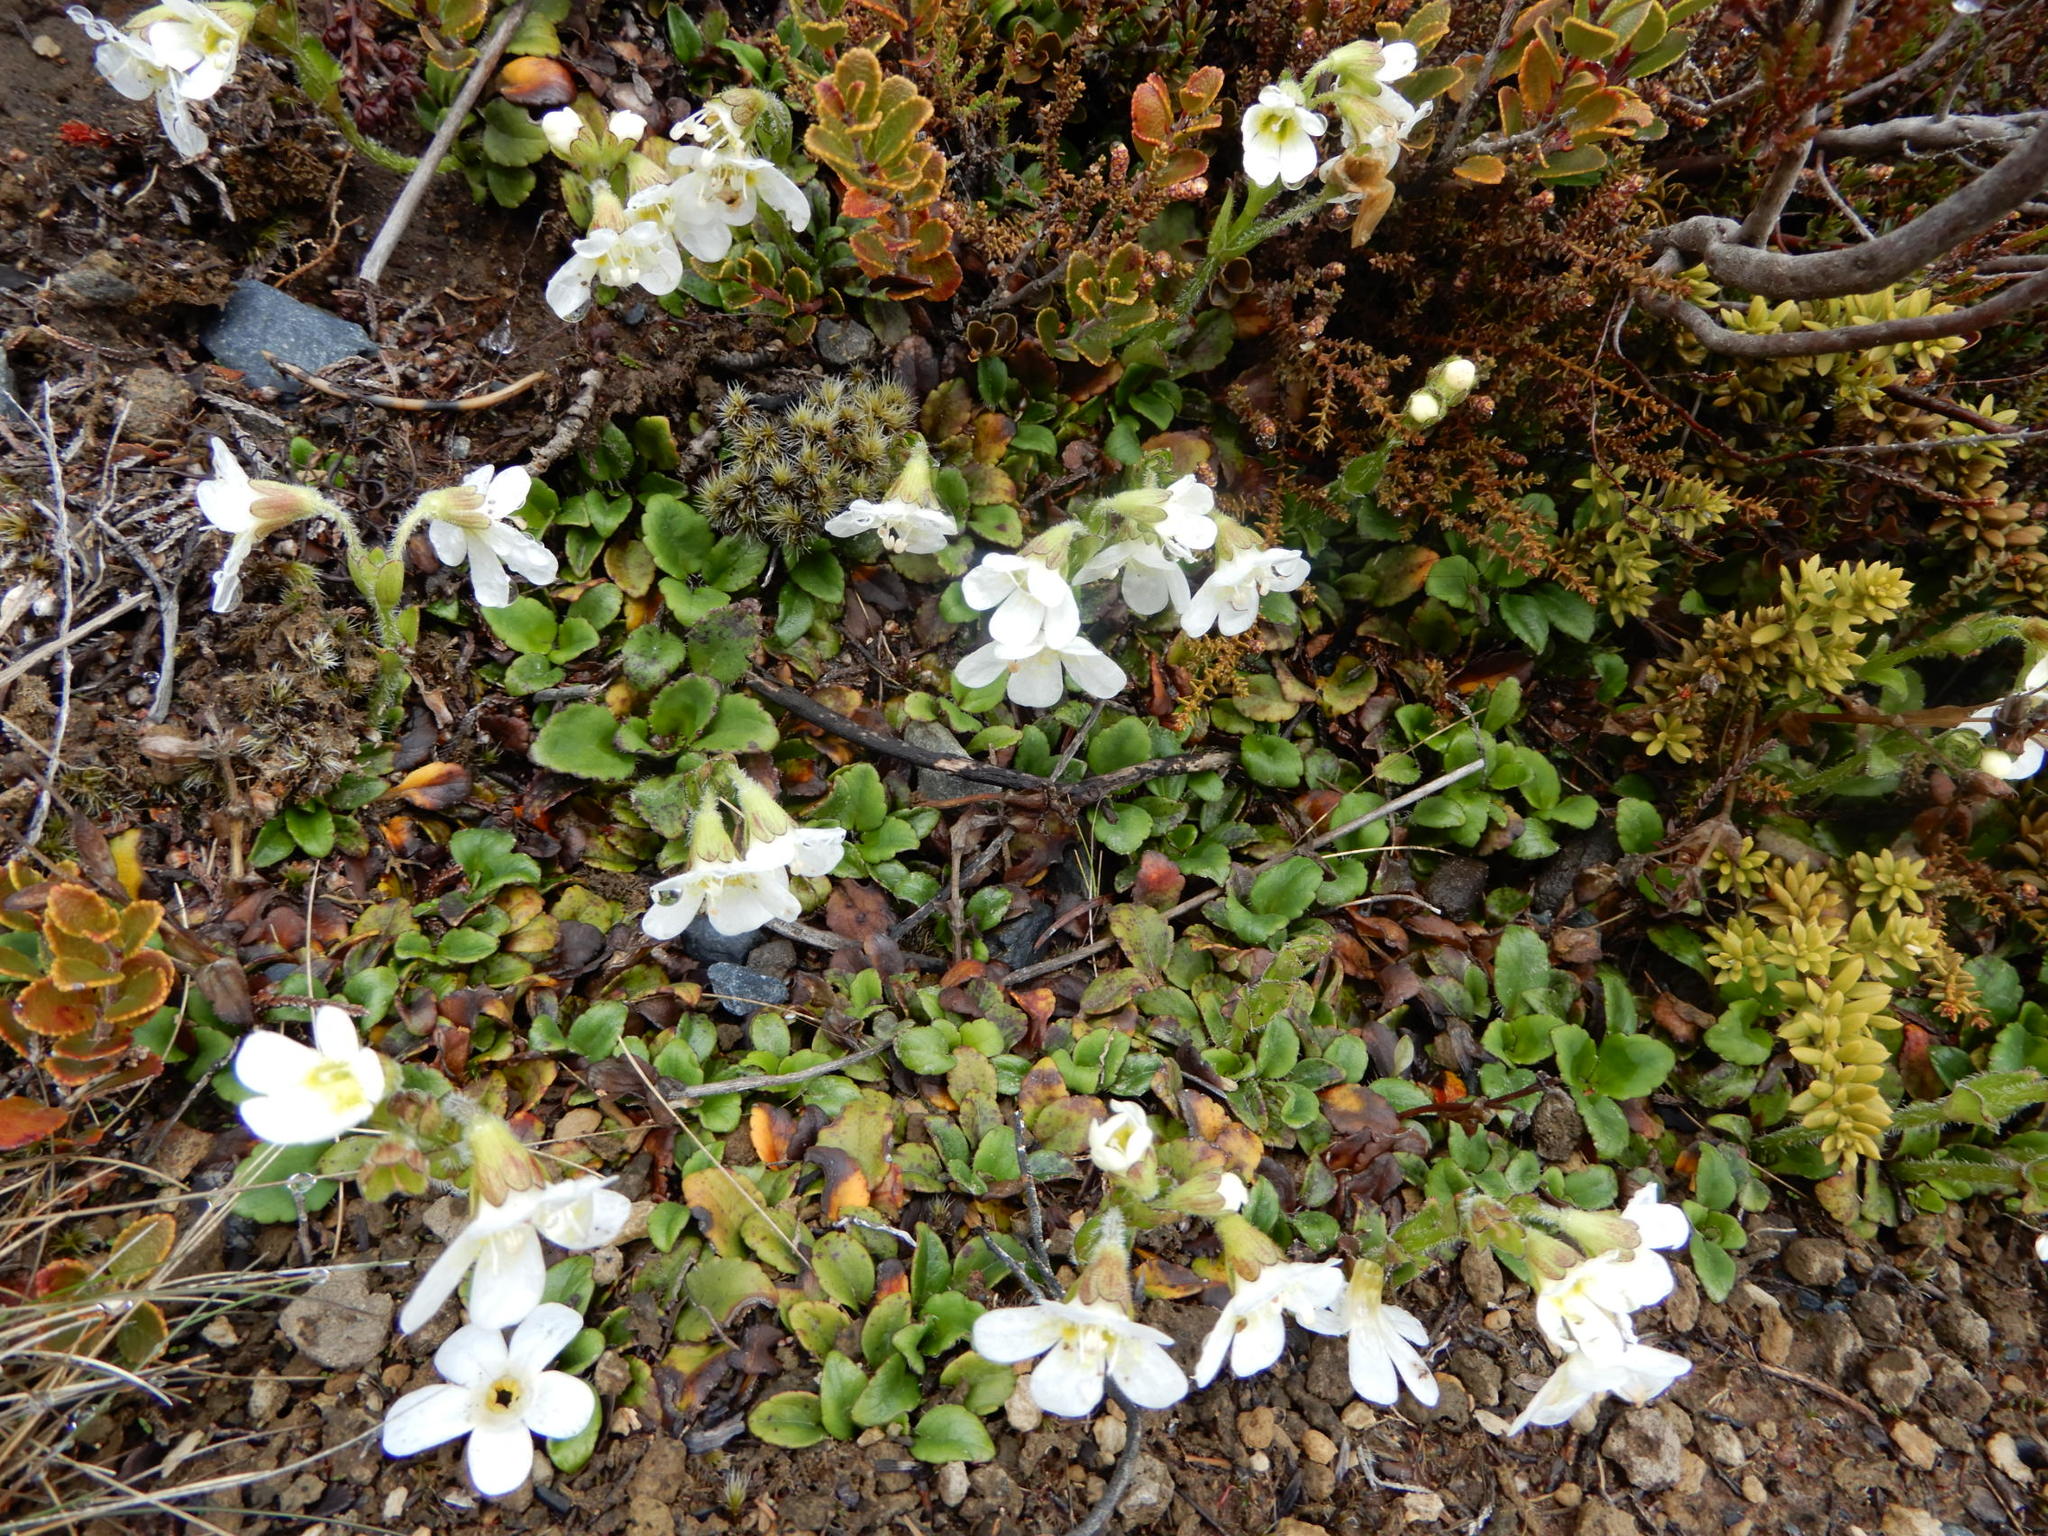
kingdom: Plantae
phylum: Tracheophyta
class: Magnoliopsida
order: Lamiales
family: Plantaginaceae
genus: Ourisia
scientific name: Ourisia vulcanica
